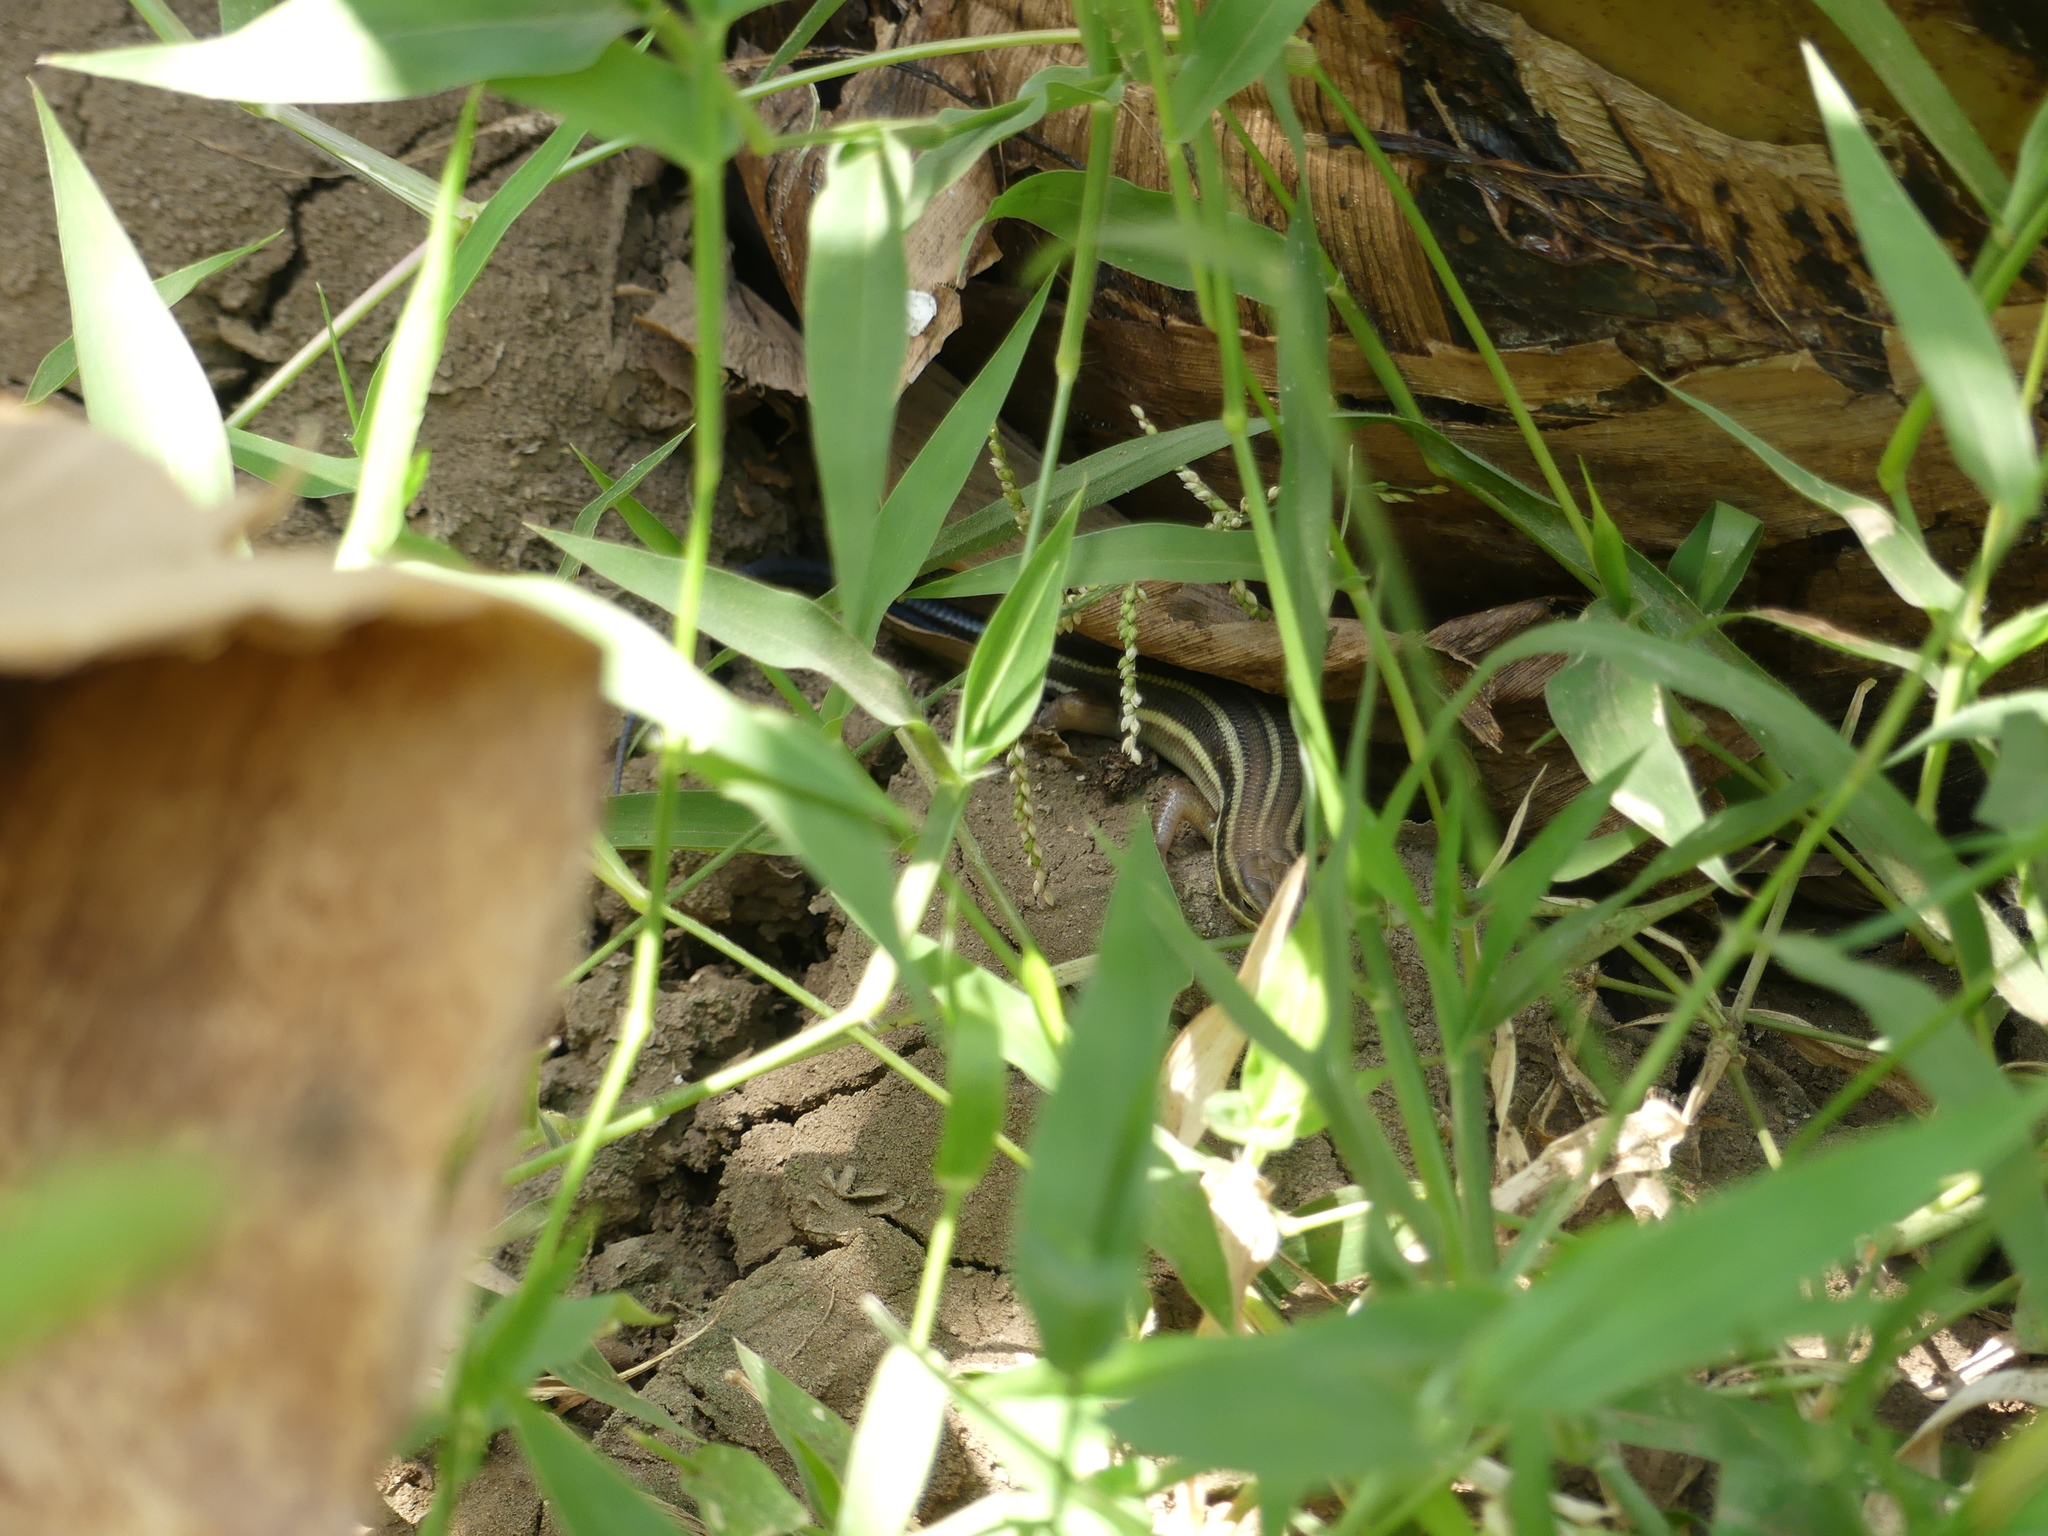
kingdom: Animalia
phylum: Chordata
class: Squamata
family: Scincidae
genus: Trachylepis
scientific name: Trachylepis quinquetaeniata
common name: African five-lined skink
